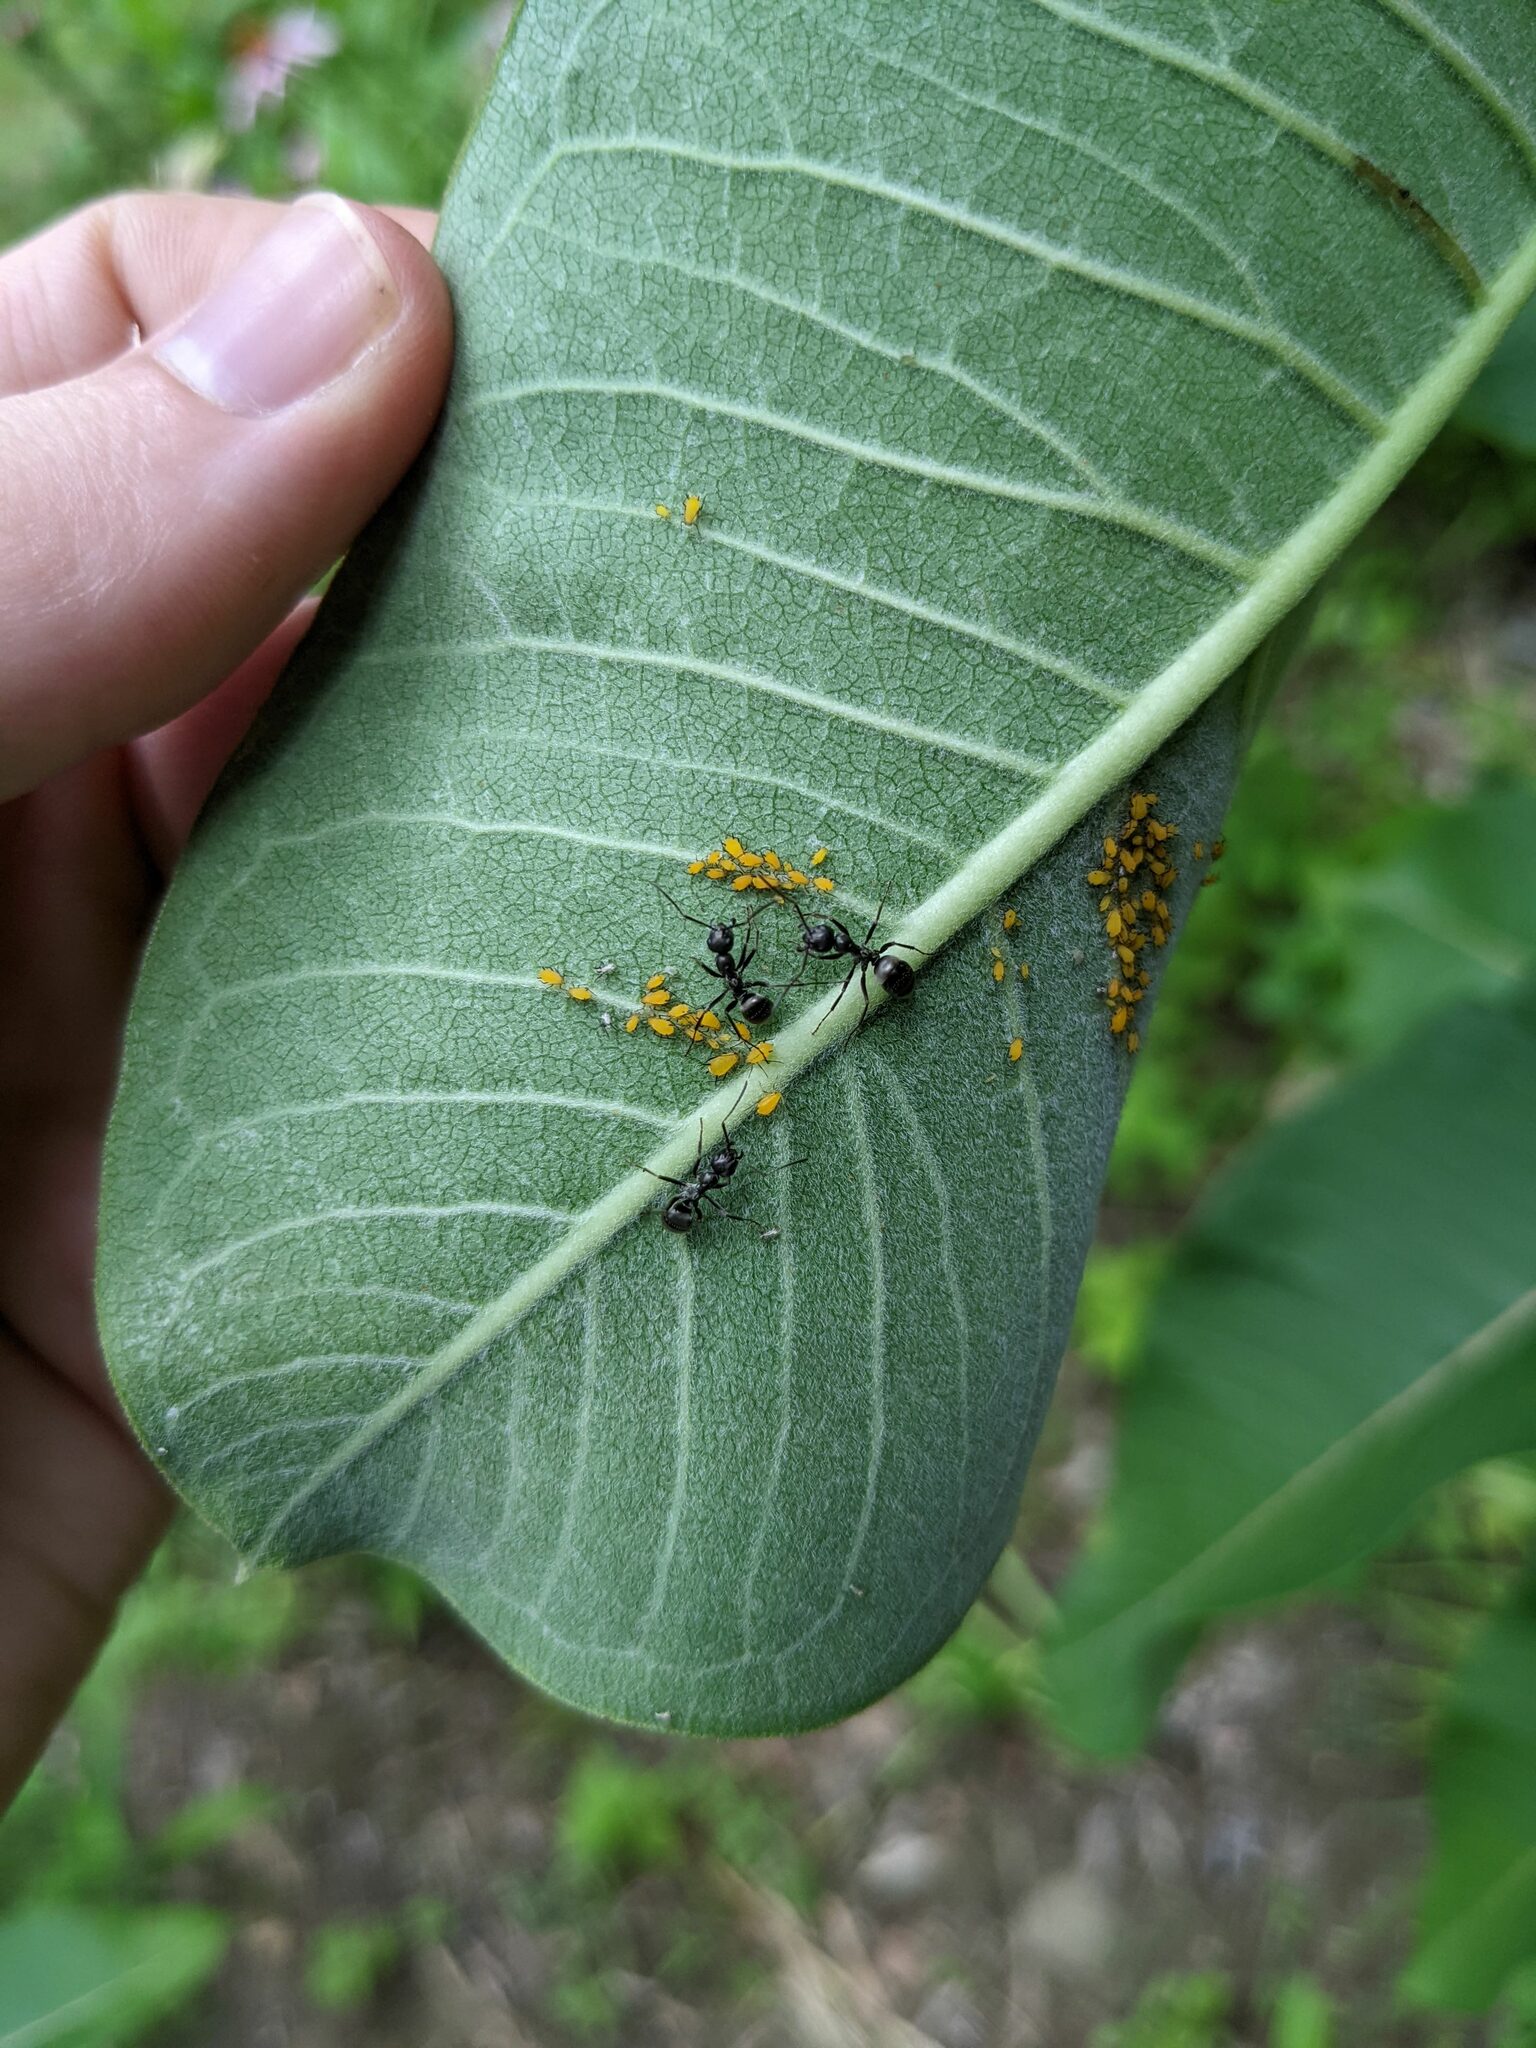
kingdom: Animalia
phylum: Arthropoda
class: Insecta
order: Hemiptera
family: Aphididae
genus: Aphis
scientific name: Aphis nerii
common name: Oleander aphid
